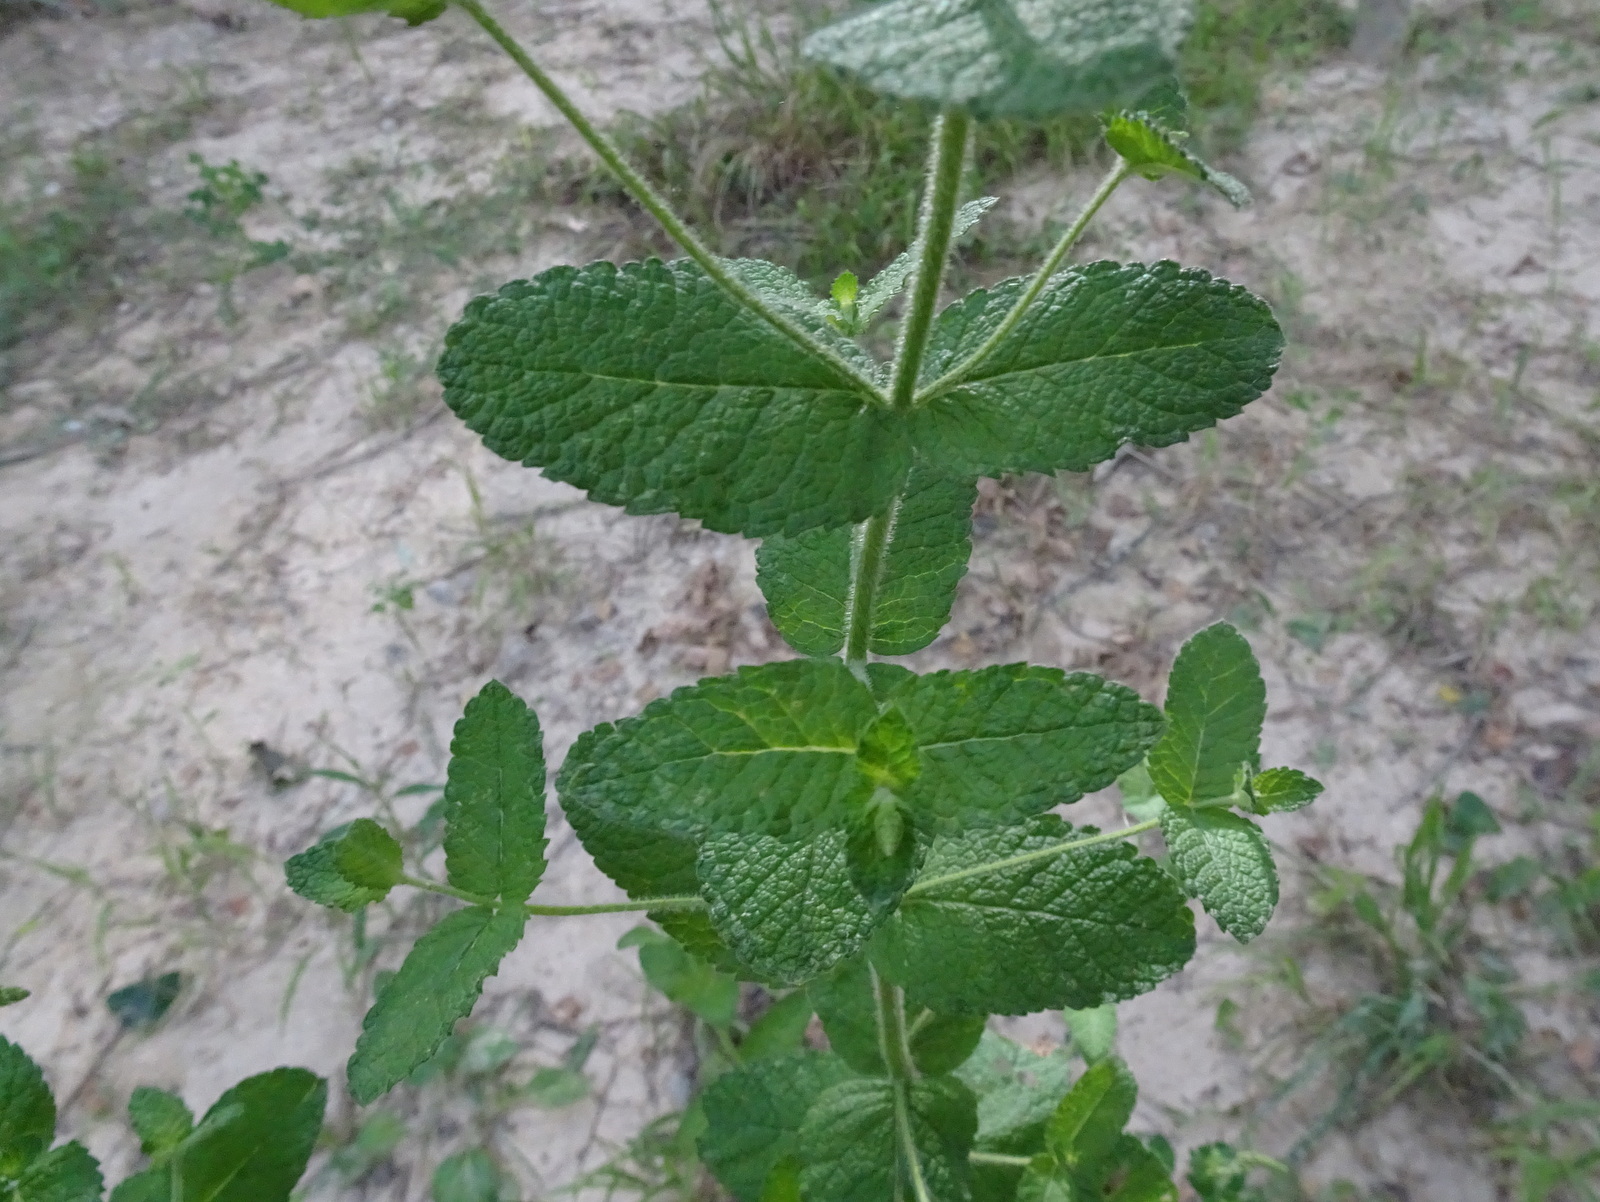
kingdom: Plantae
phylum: Tracheophyta
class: Magnoliopsida
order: Lamiales
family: Lamiaceae
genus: Mentha
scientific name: Mentha suaveolens
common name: Apple mint
